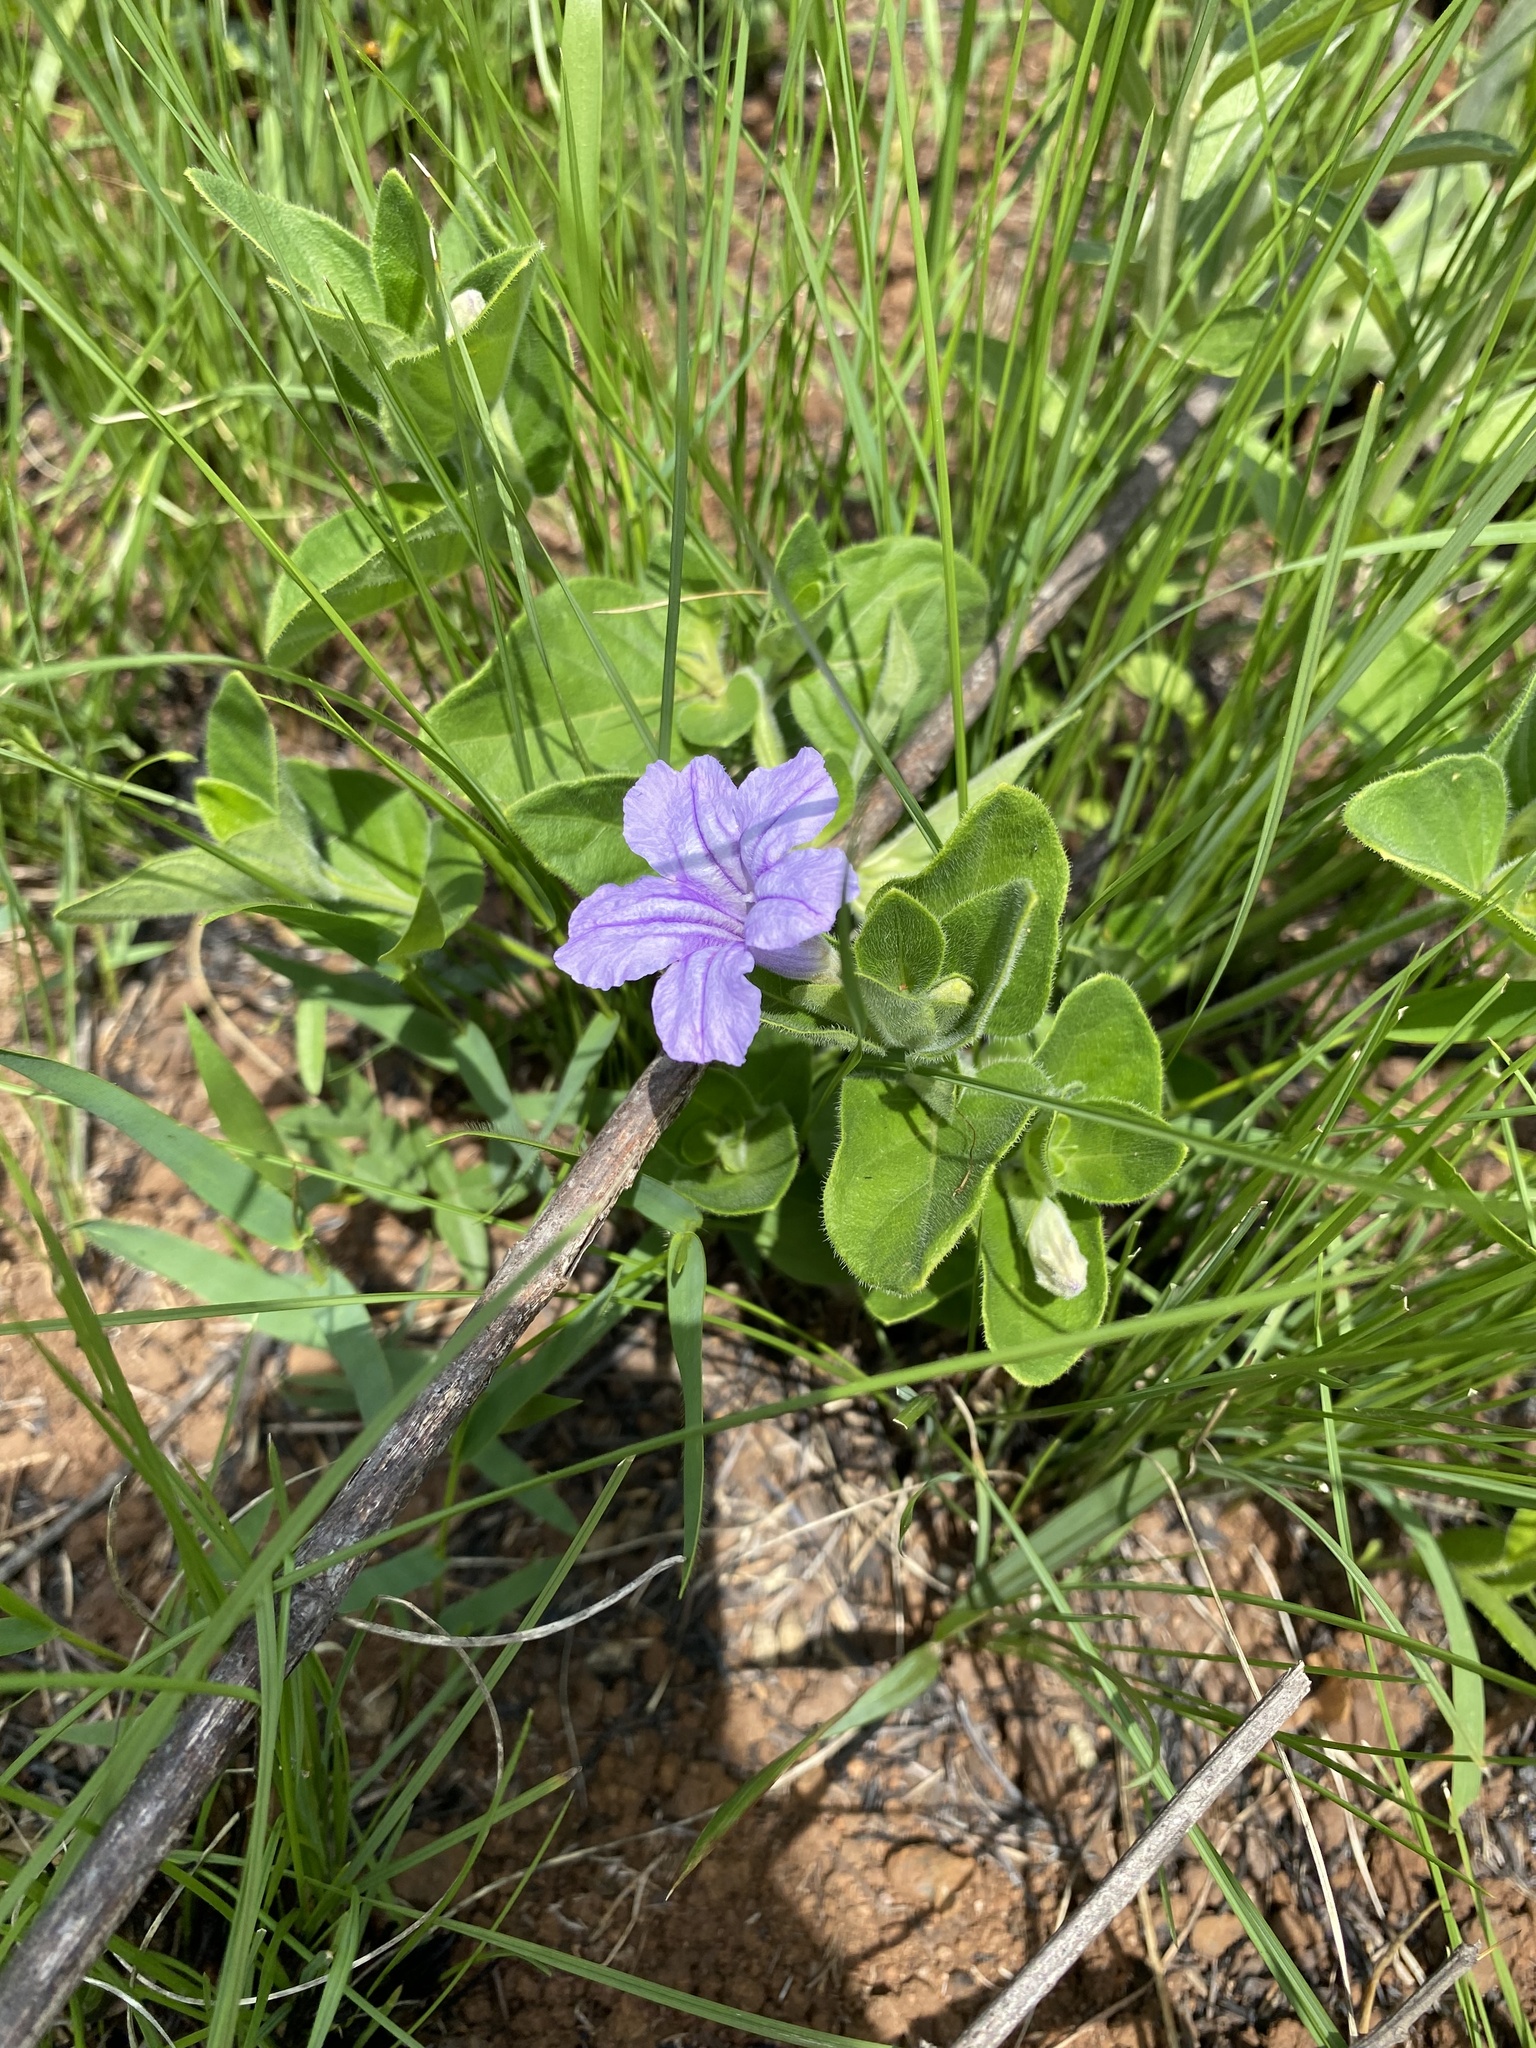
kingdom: Plantae
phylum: Tracheophyta
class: Magnoliopsida
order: Lamiales
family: Acanthaceae
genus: Ruellia
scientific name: Ruellia cordata
